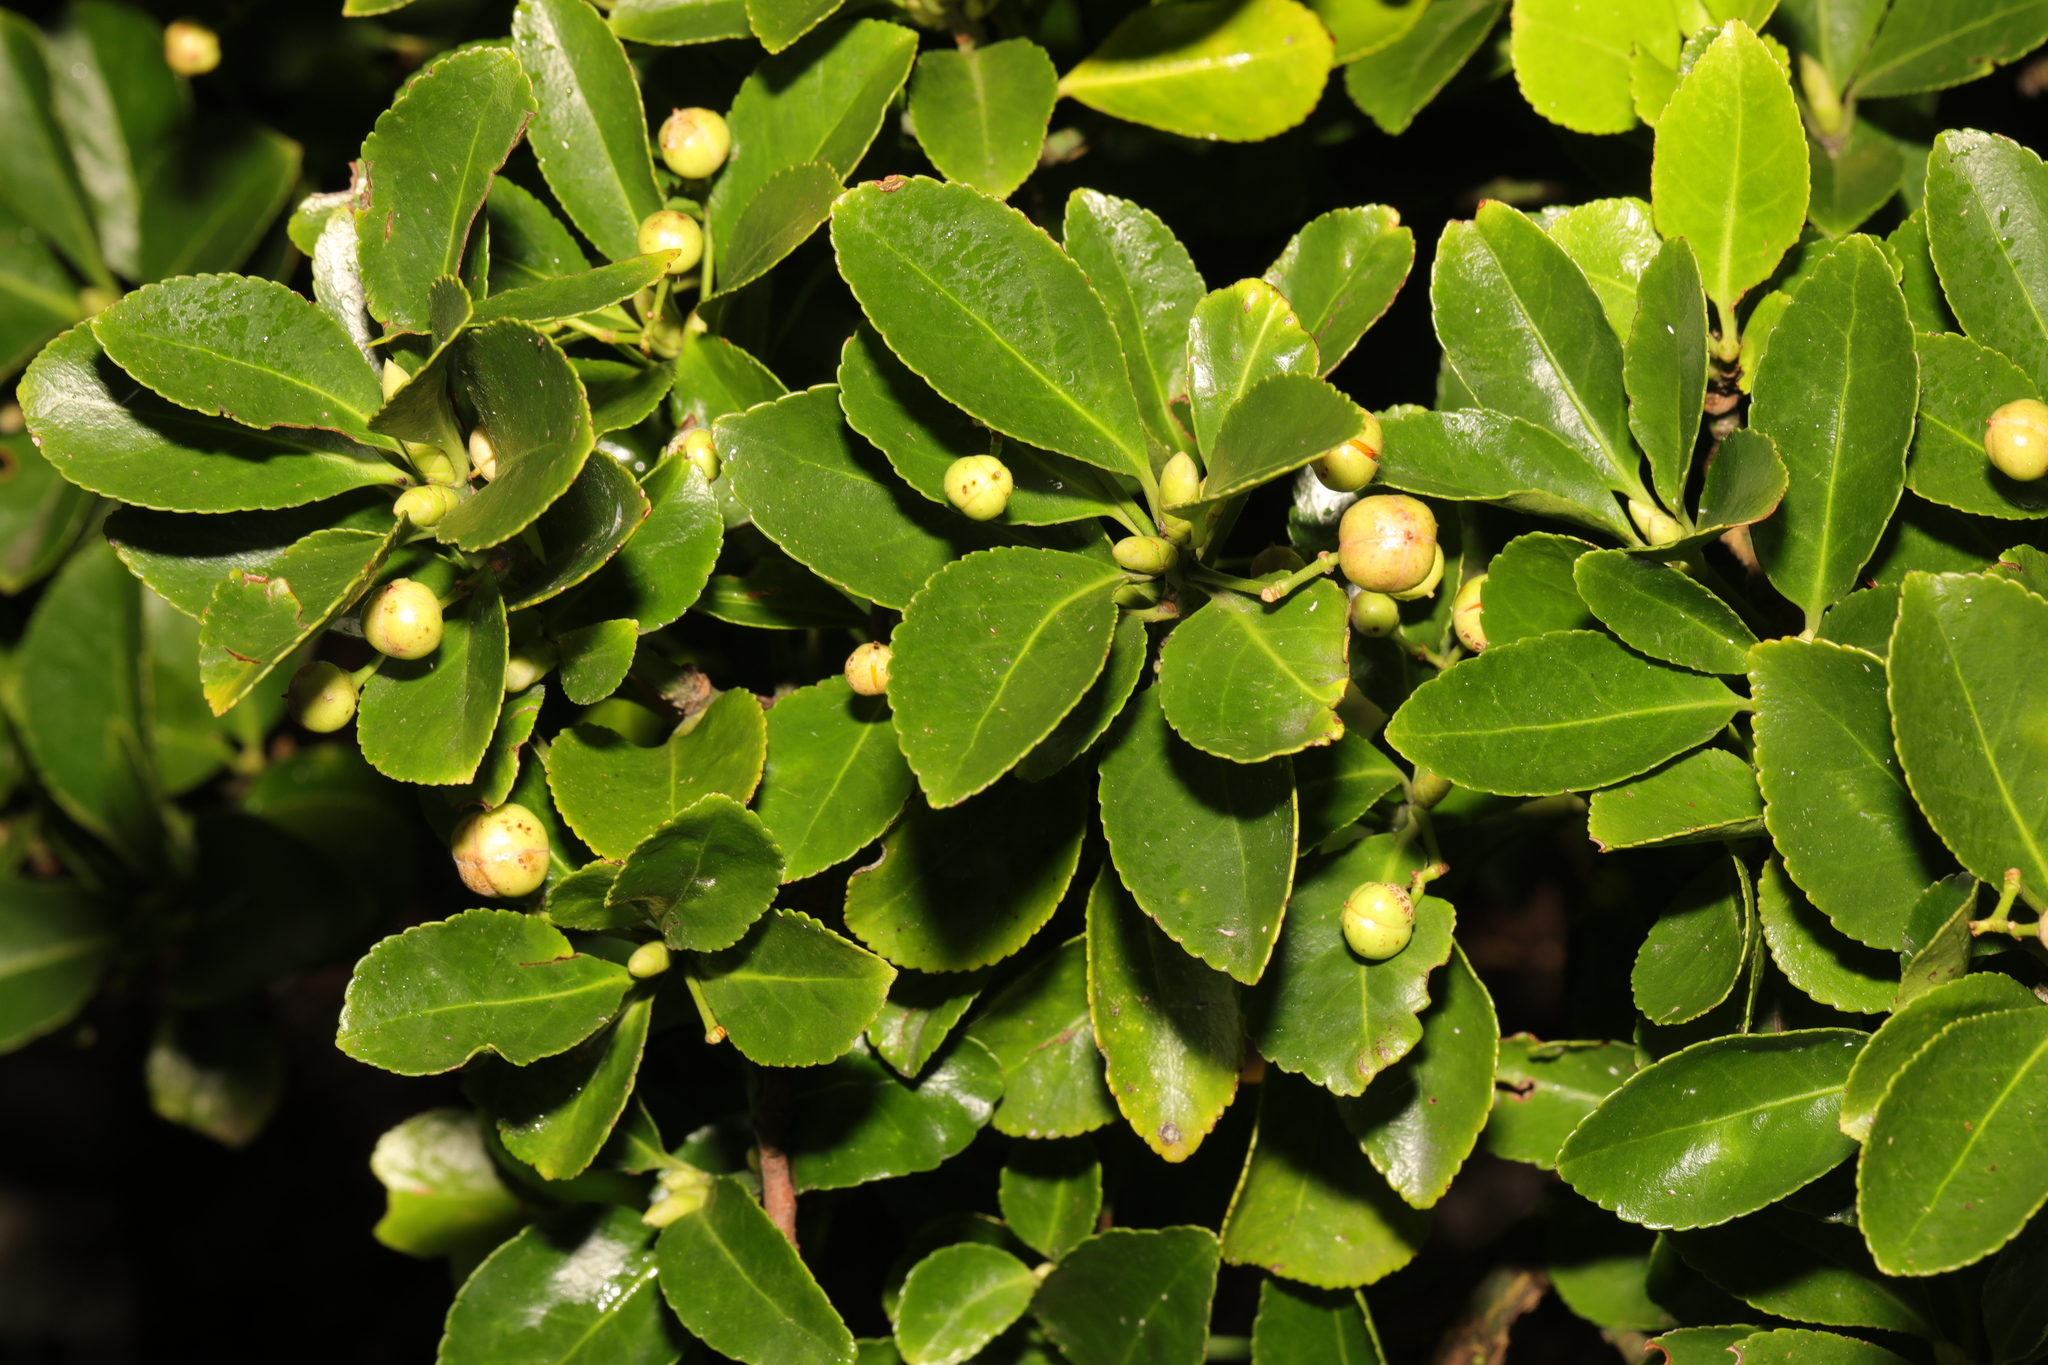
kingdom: Plantae
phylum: Tracheophyta
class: Magnoliopsida
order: Celastrales
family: Celastraceae
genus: Euonymus
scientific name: Euonymus japonicus
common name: Japanese spindletree
